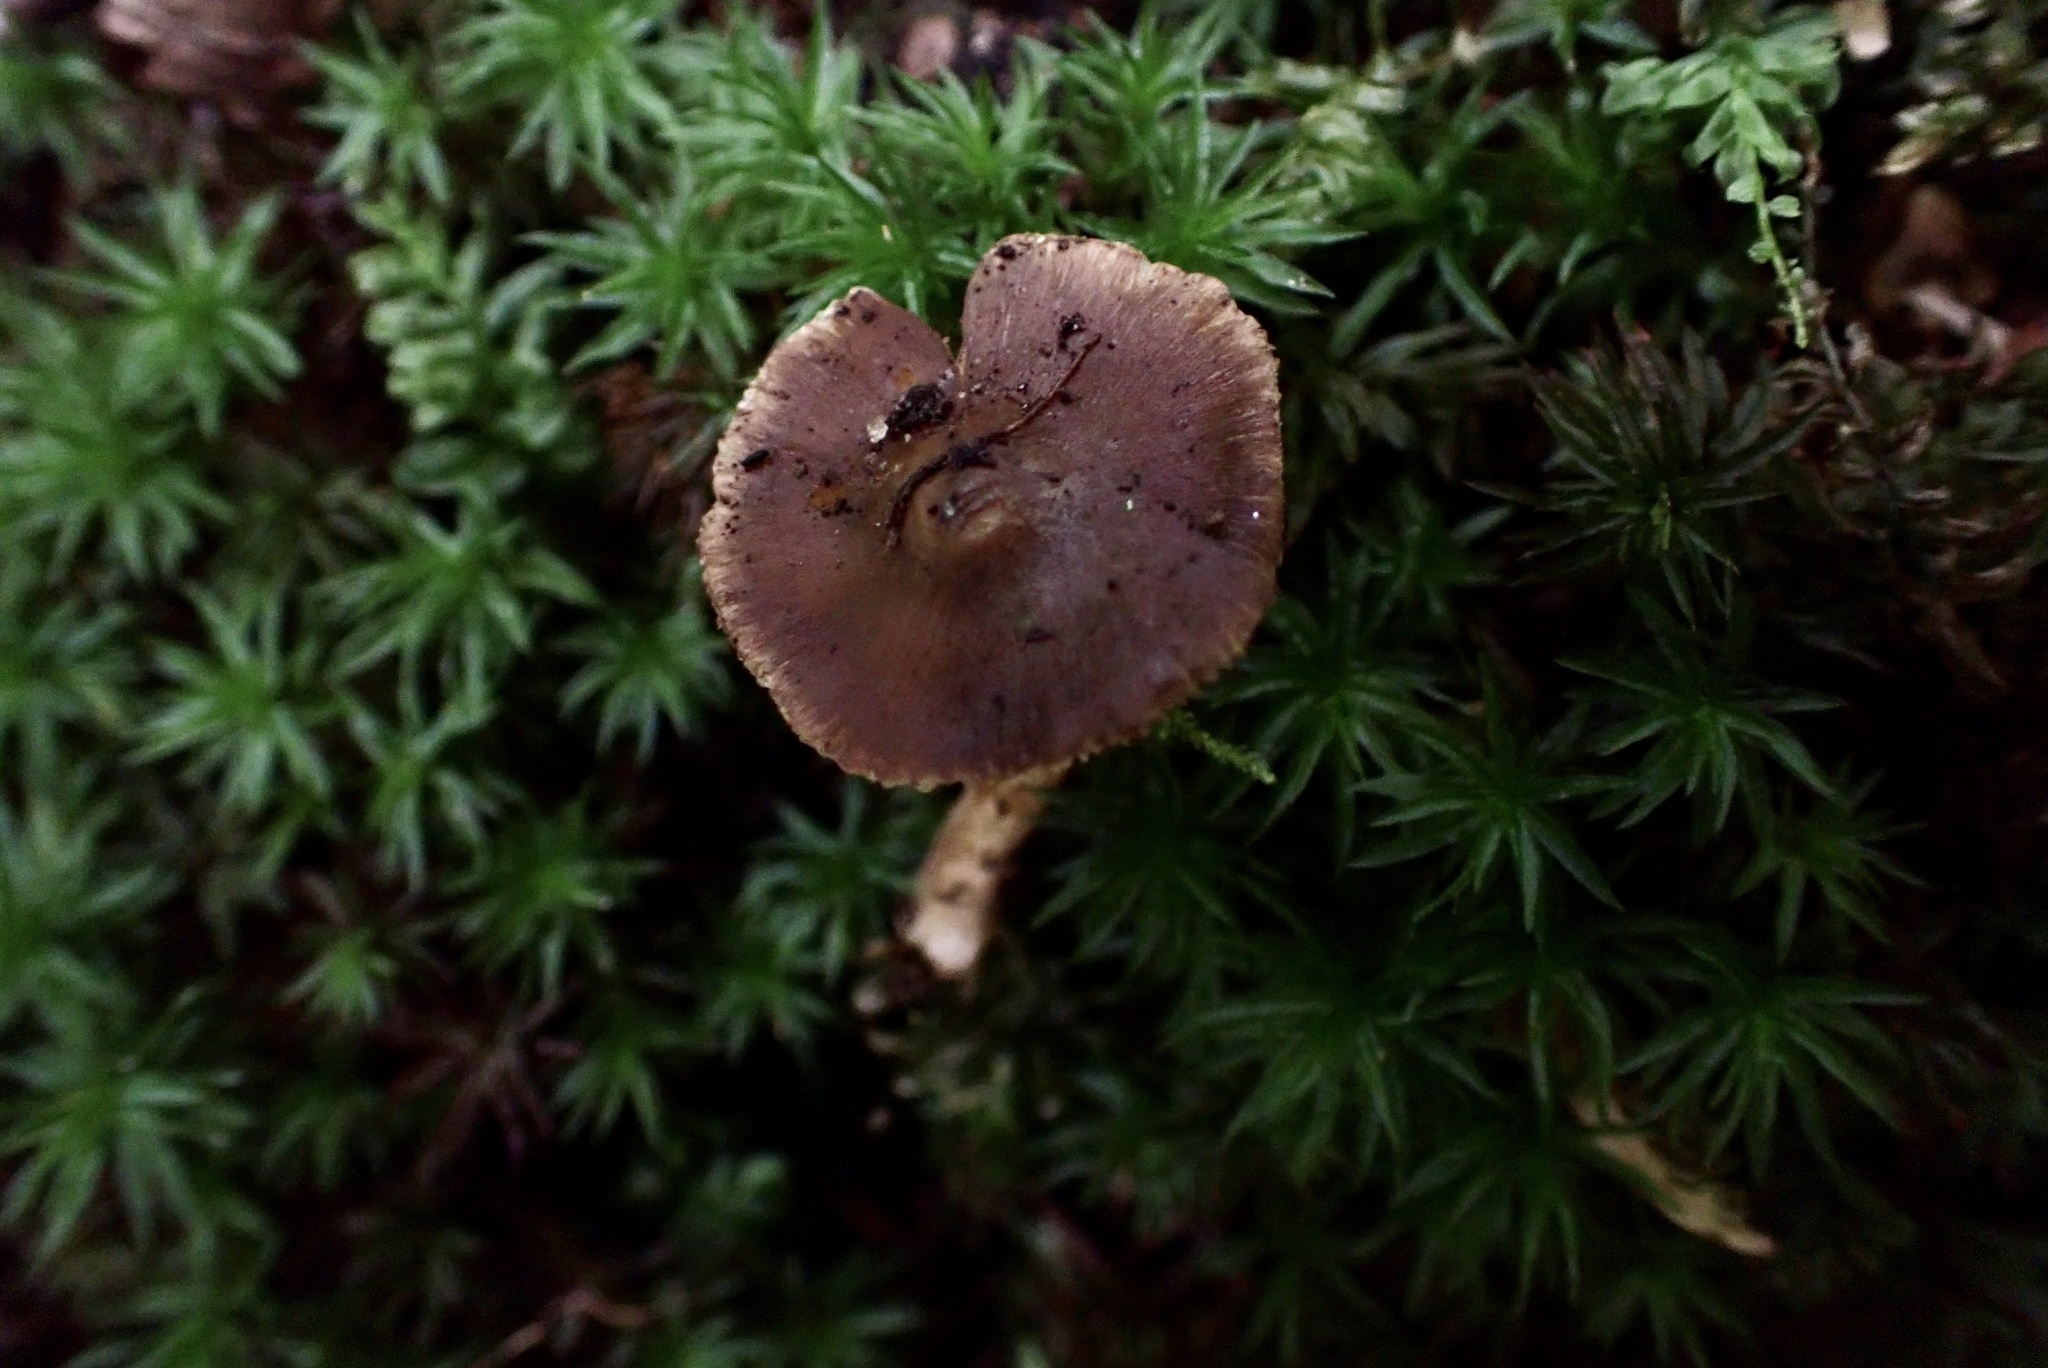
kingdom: Fungi
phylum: Basidiomycota
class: Agaricomycetes
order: Agaricales
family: Inocybaceae
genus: Inocybe
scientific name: Inocybe nodulosa
